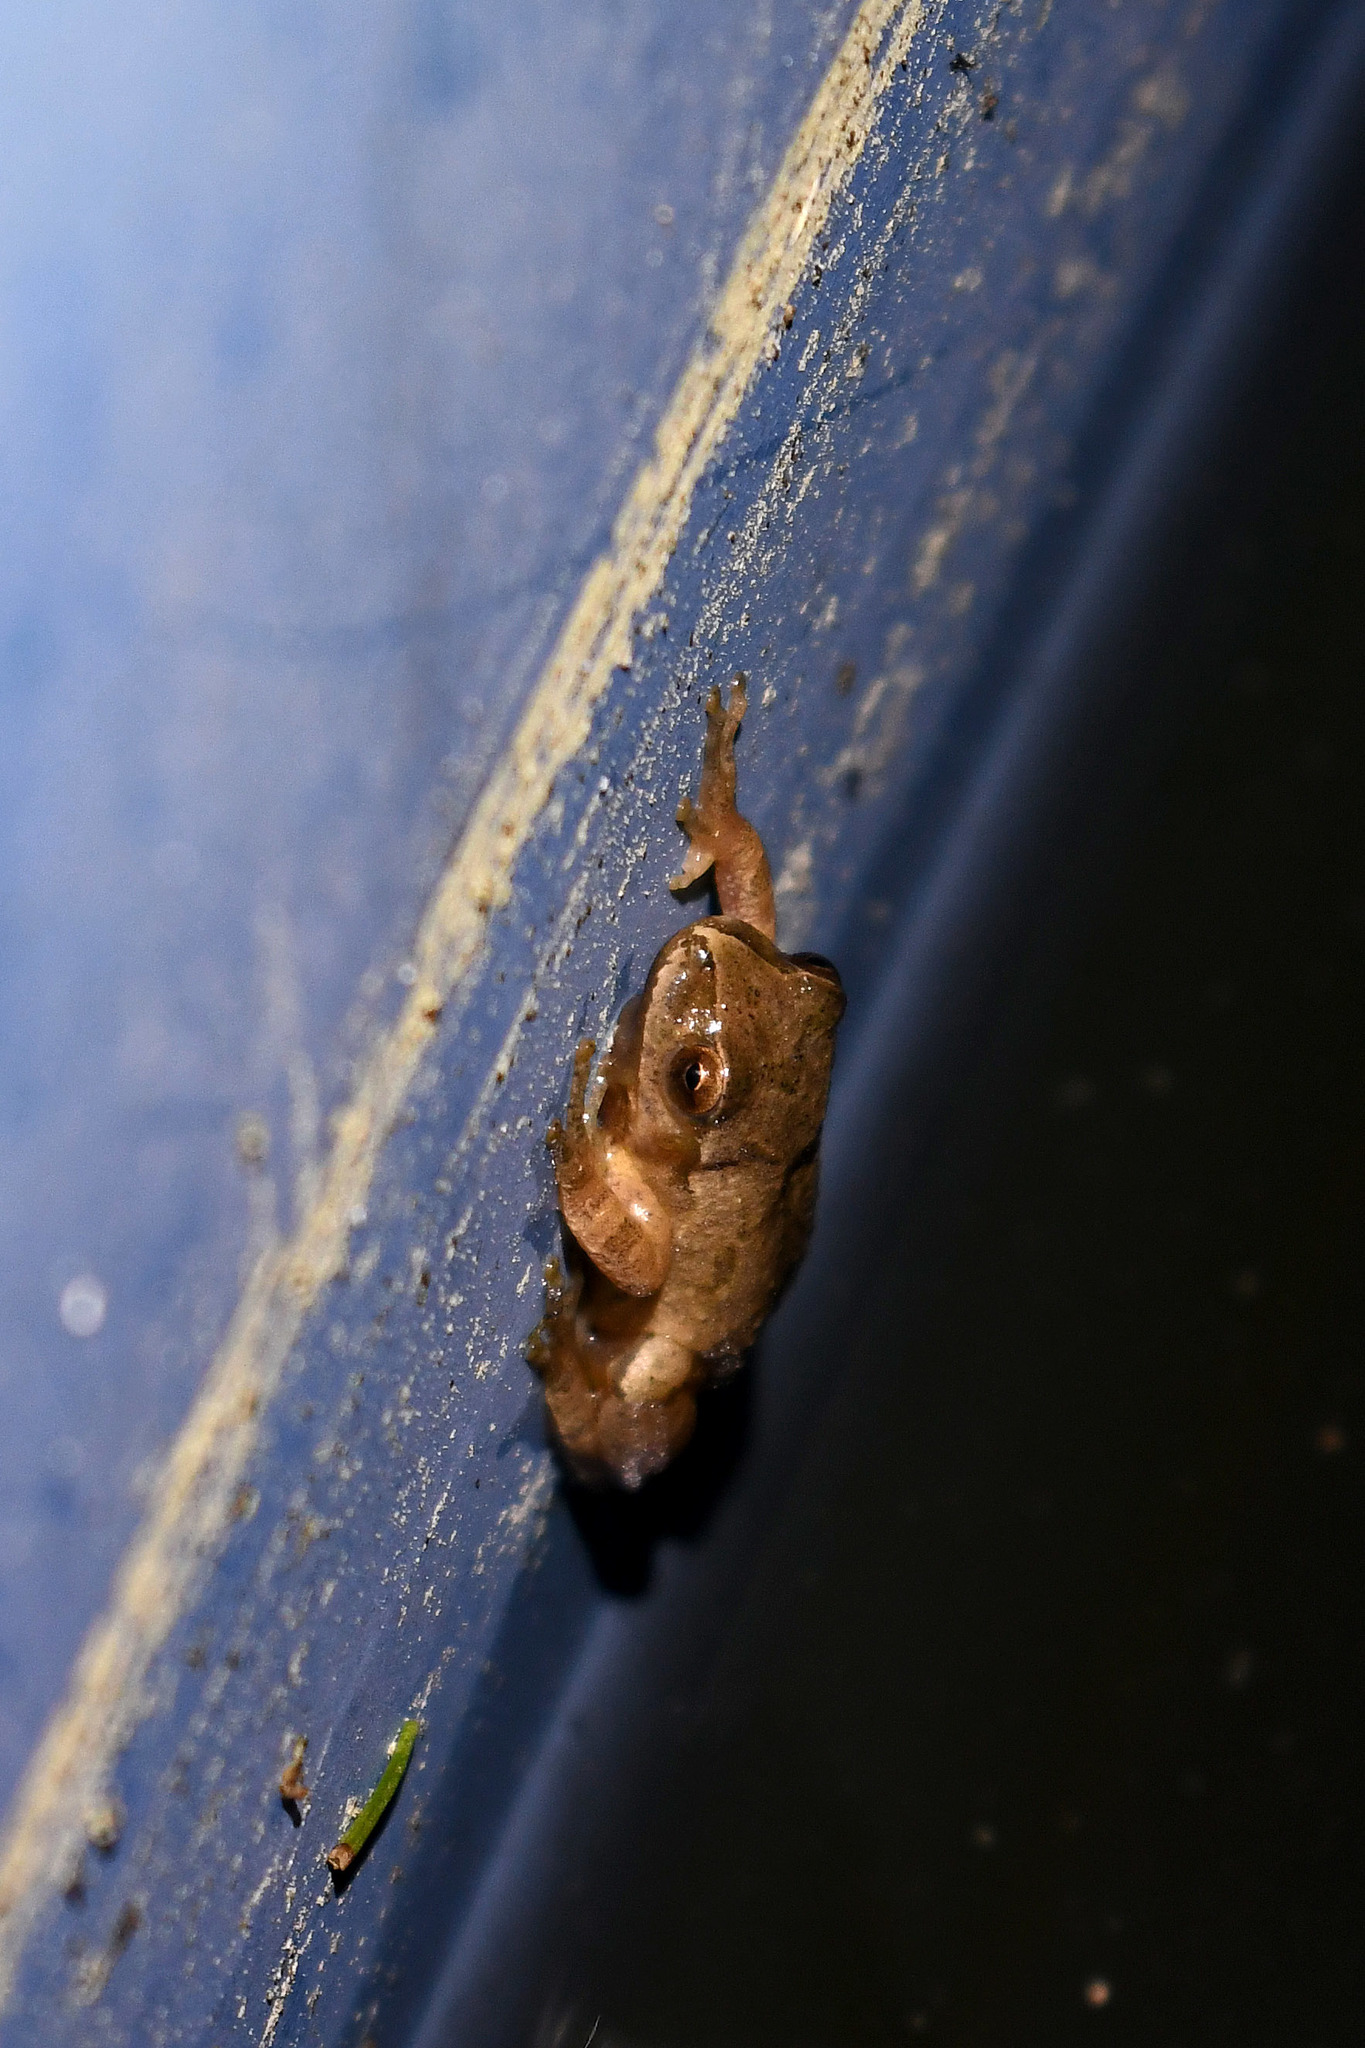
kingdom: Animalia
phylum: Chordata
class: Amphibia
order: Anura
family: Hylidae
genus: Pseudacris
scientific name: Pseudacris crucifer
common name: Spring peeper
